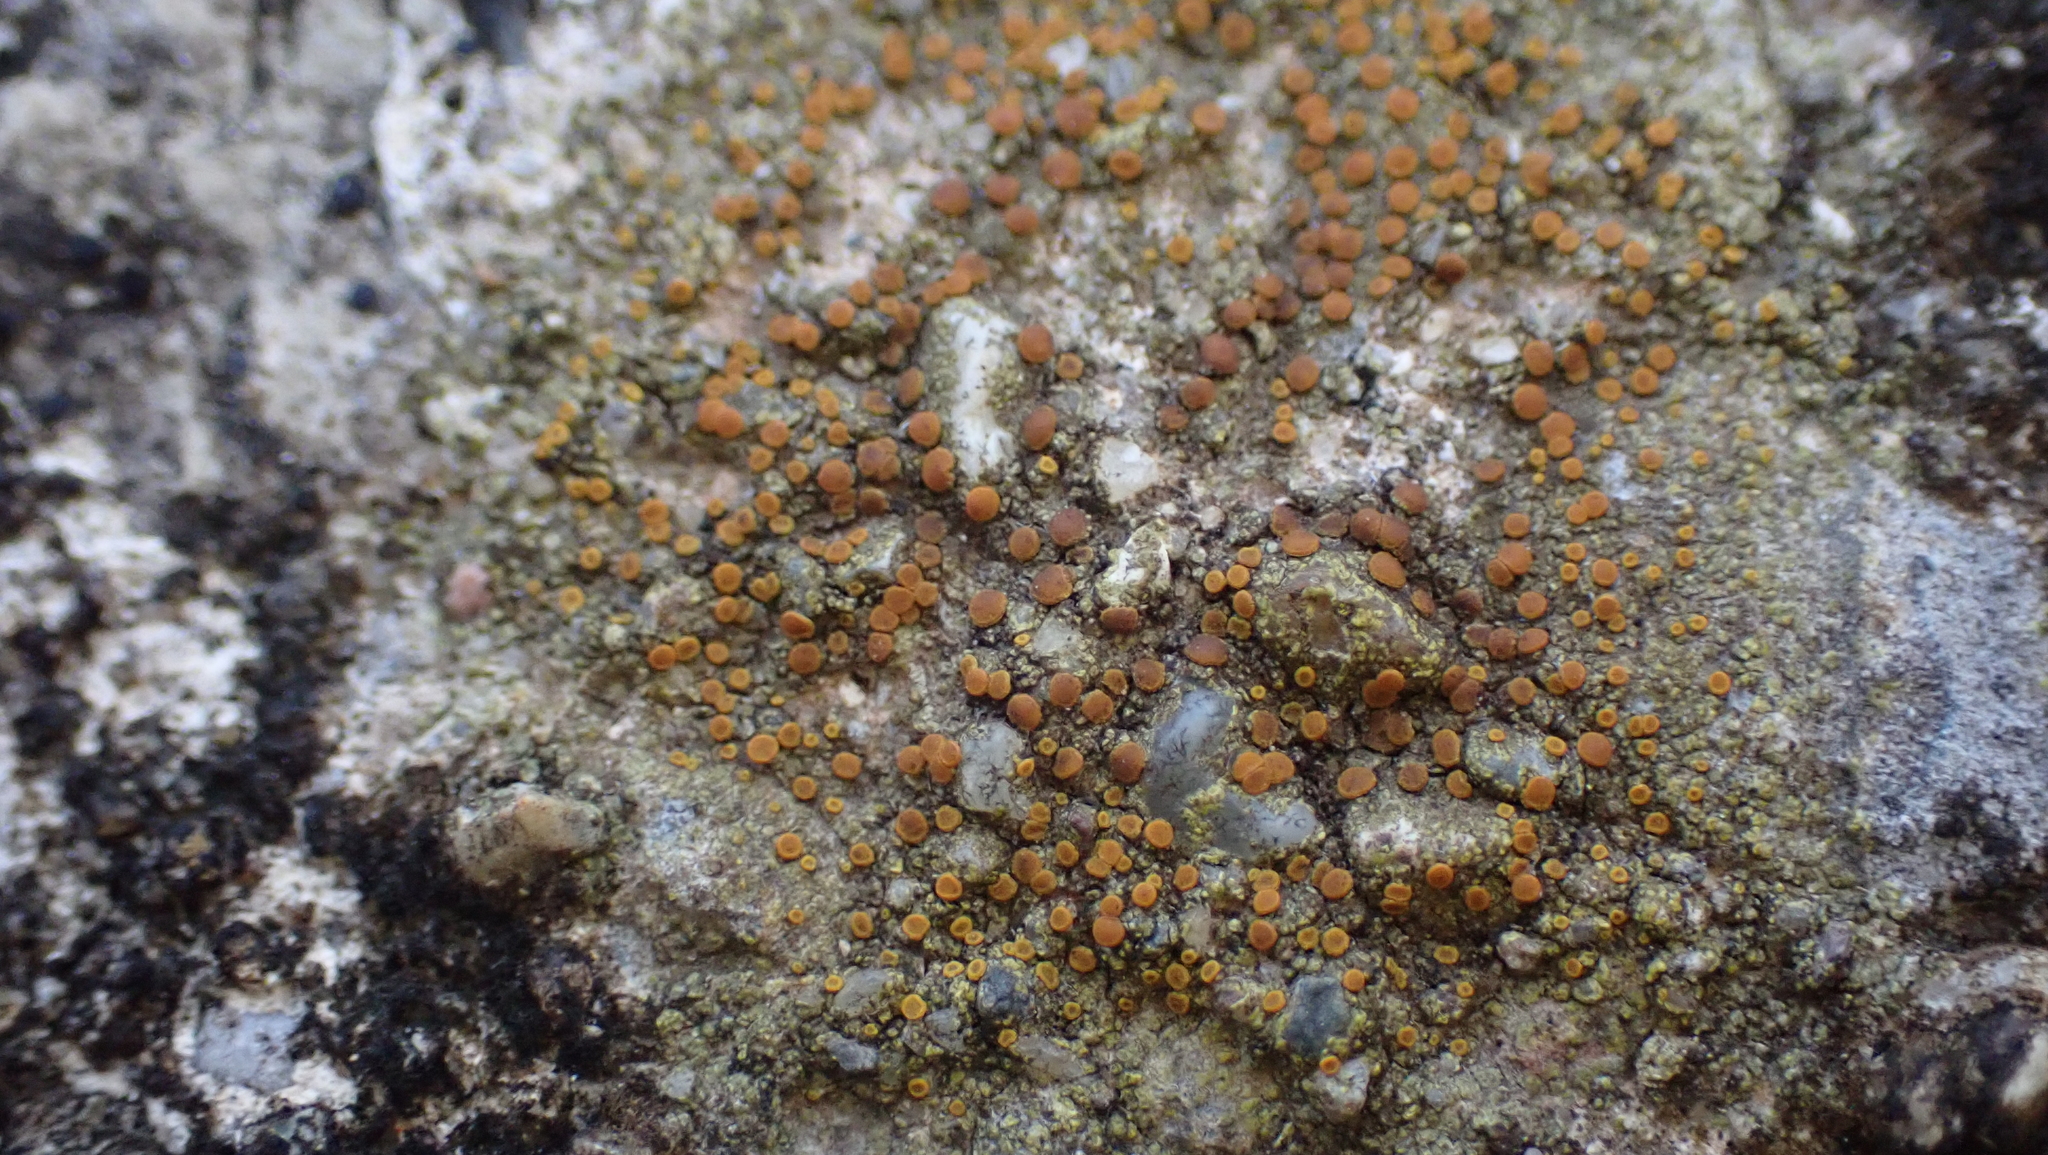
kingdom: Fungi
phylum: Ascomycota
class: Lecanoromycetes
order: Teloschistales
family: Teloschistaceae
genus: Gyalolechia
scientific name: Gyalolechia flavovirescens
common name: Sulphur firedot
